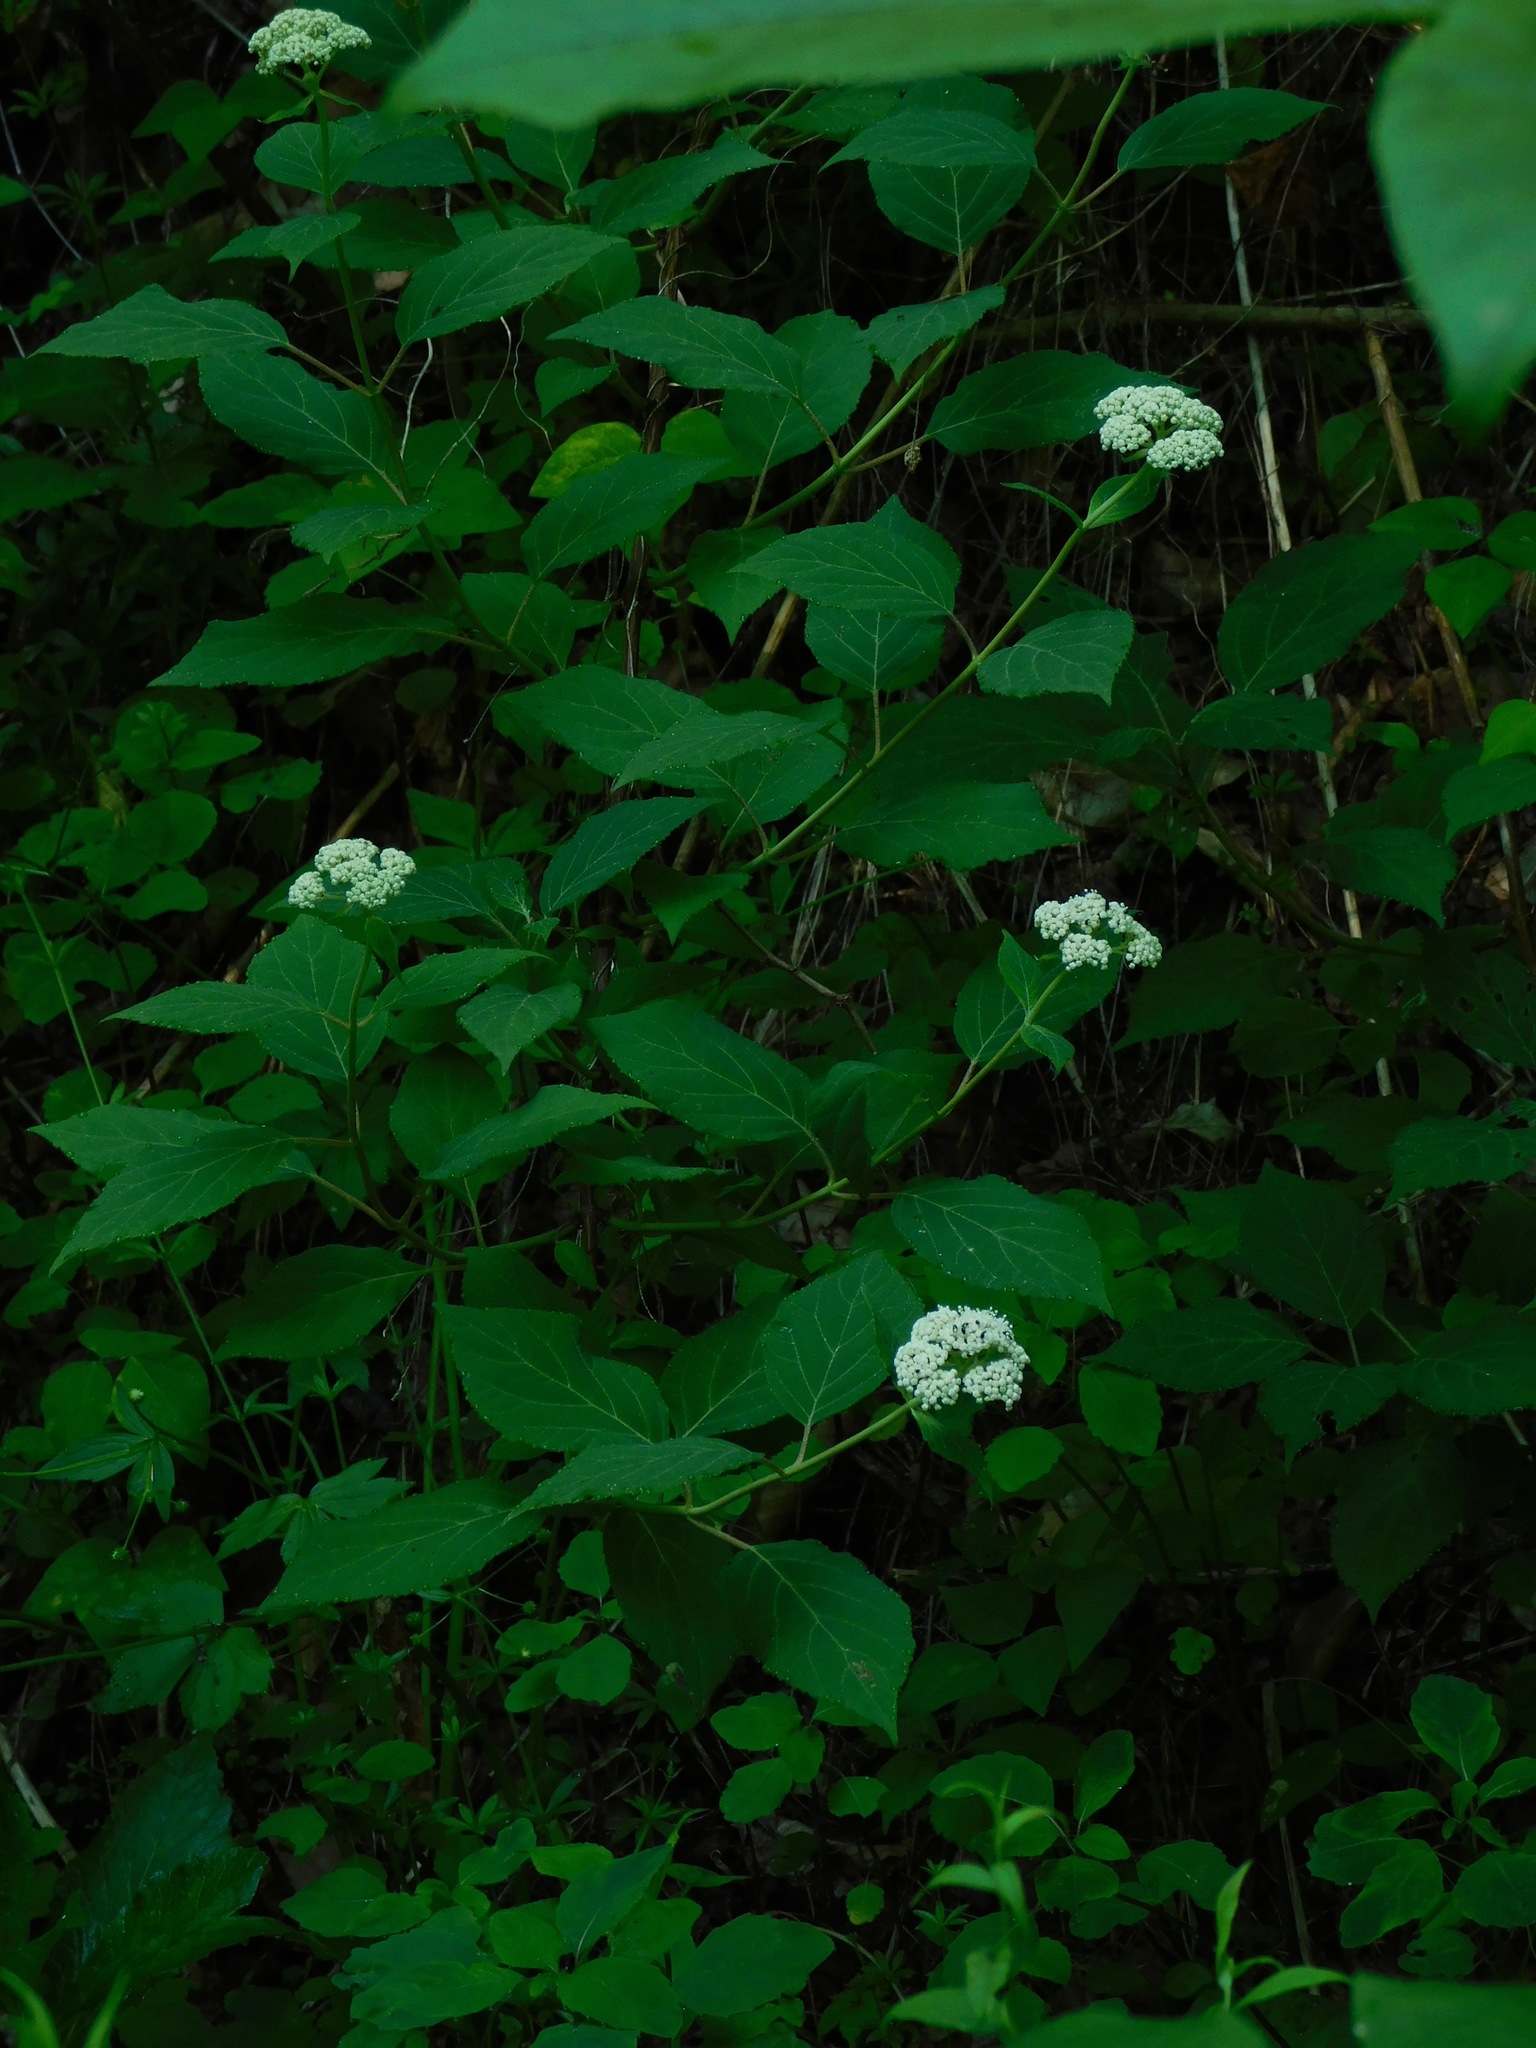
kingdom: Plantae
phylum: Tracheophyta
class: Magnoliopsida
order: Cornales
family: Hydrangeaceae
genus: Hydrangea
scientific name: Hydrangea arborescens
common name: Sevenbark
